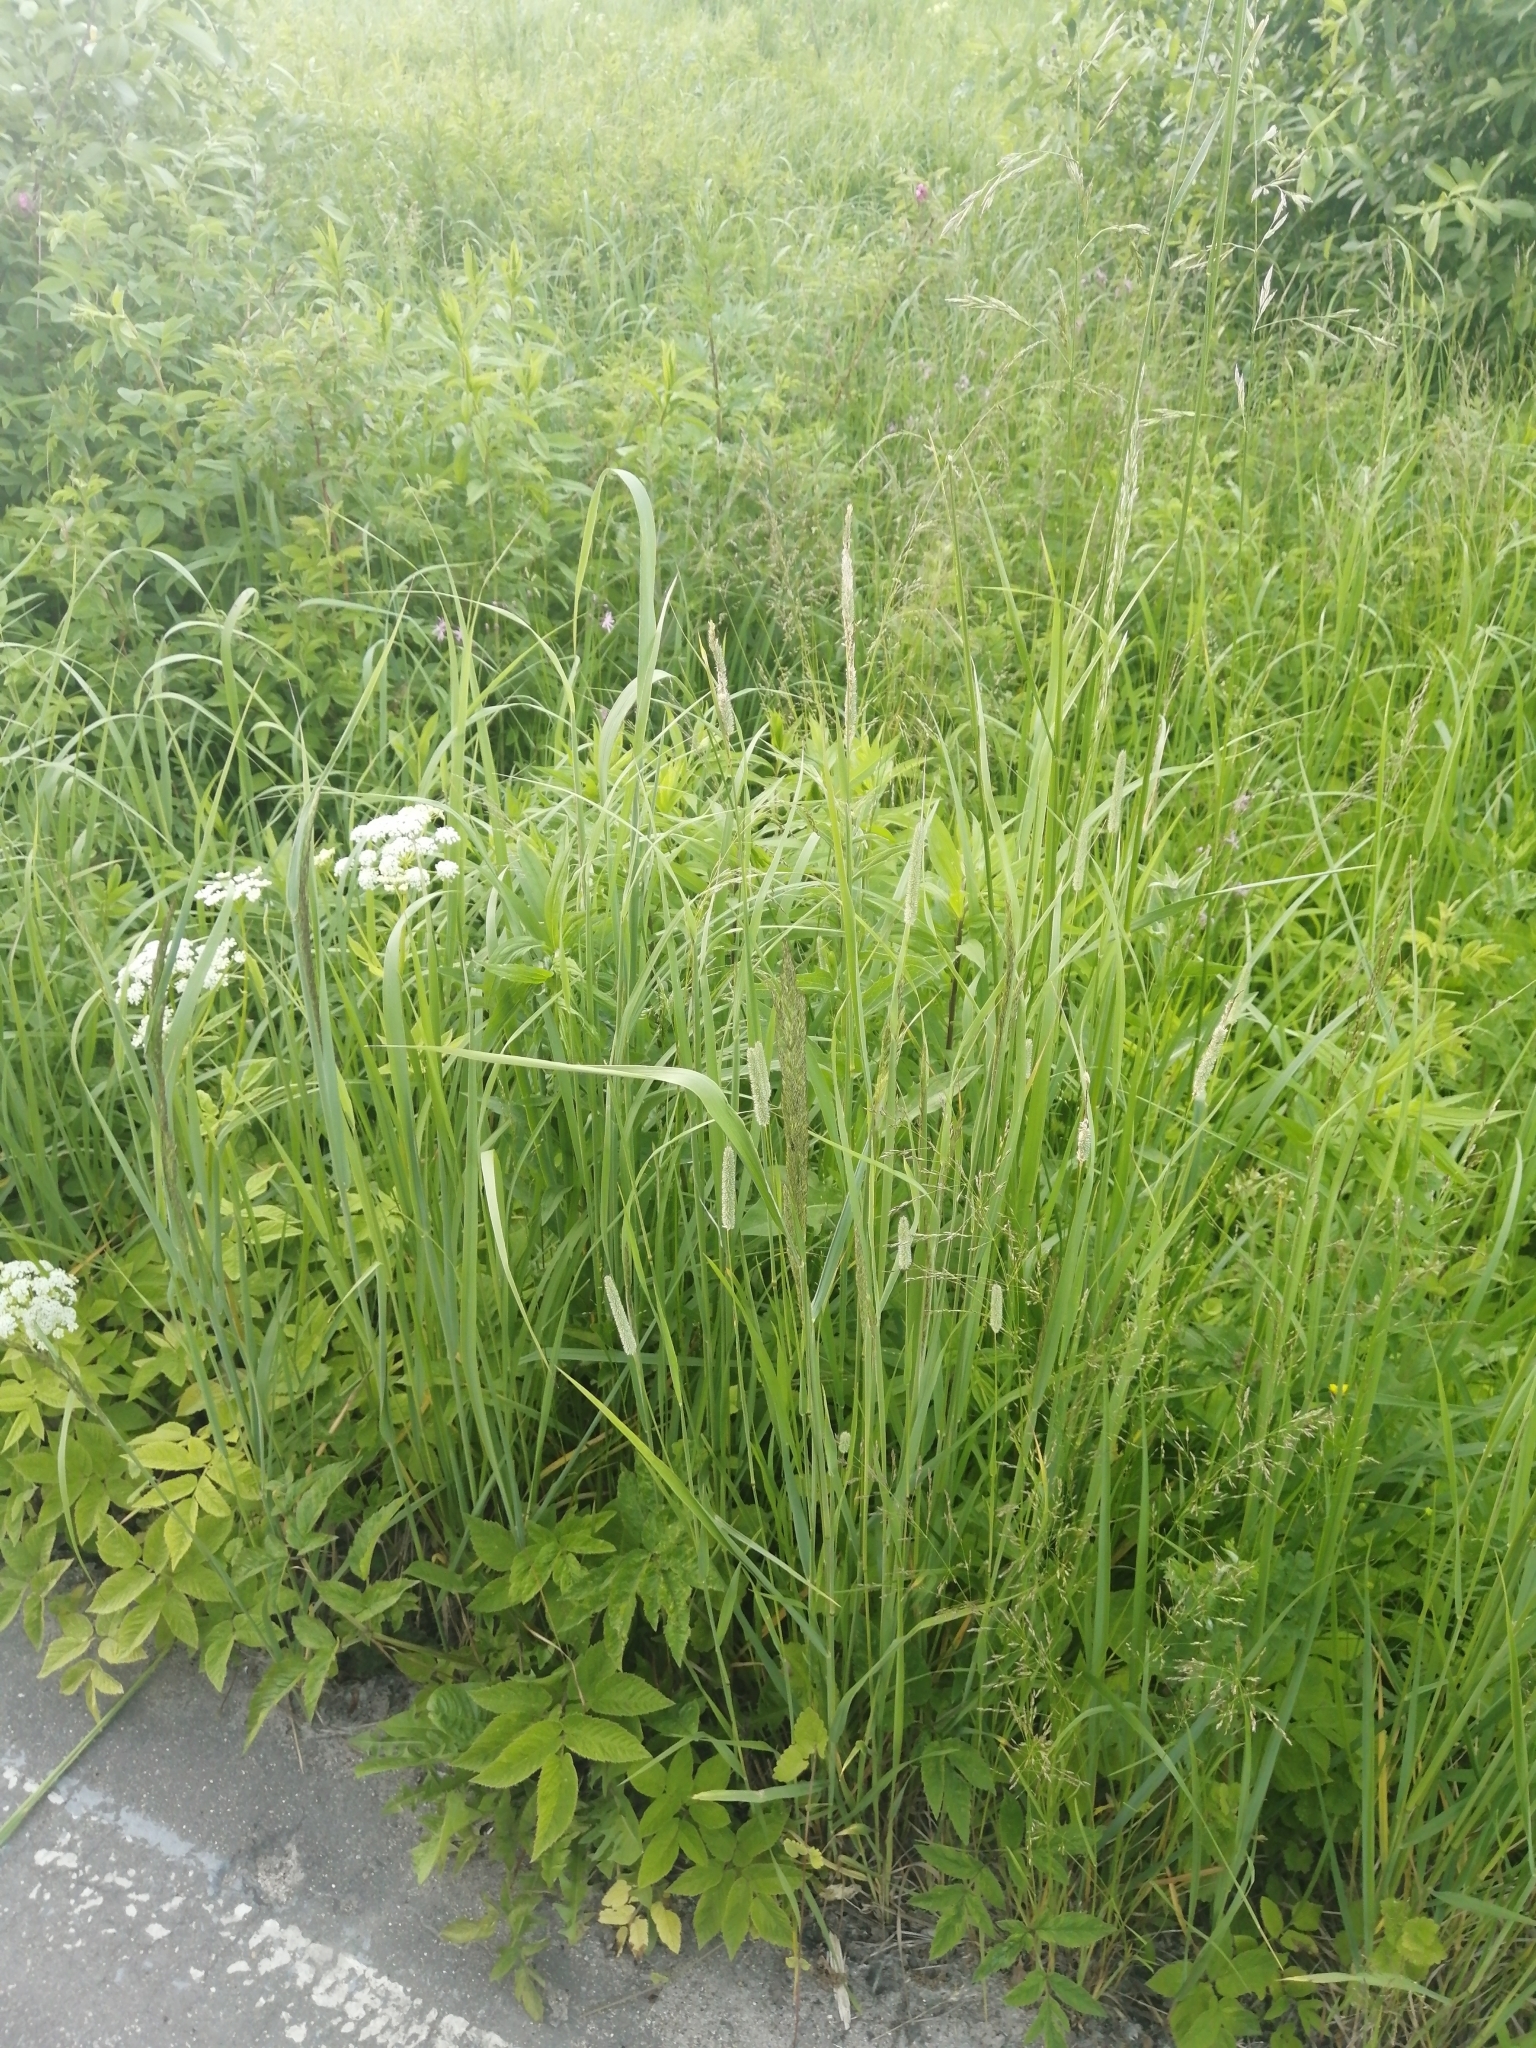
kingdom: Plantae
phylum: Tracheophyta
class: Liliopsida
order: Poales
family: Poaceae
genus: Phleum
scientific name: Phleum pratense
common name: Timothy grass
